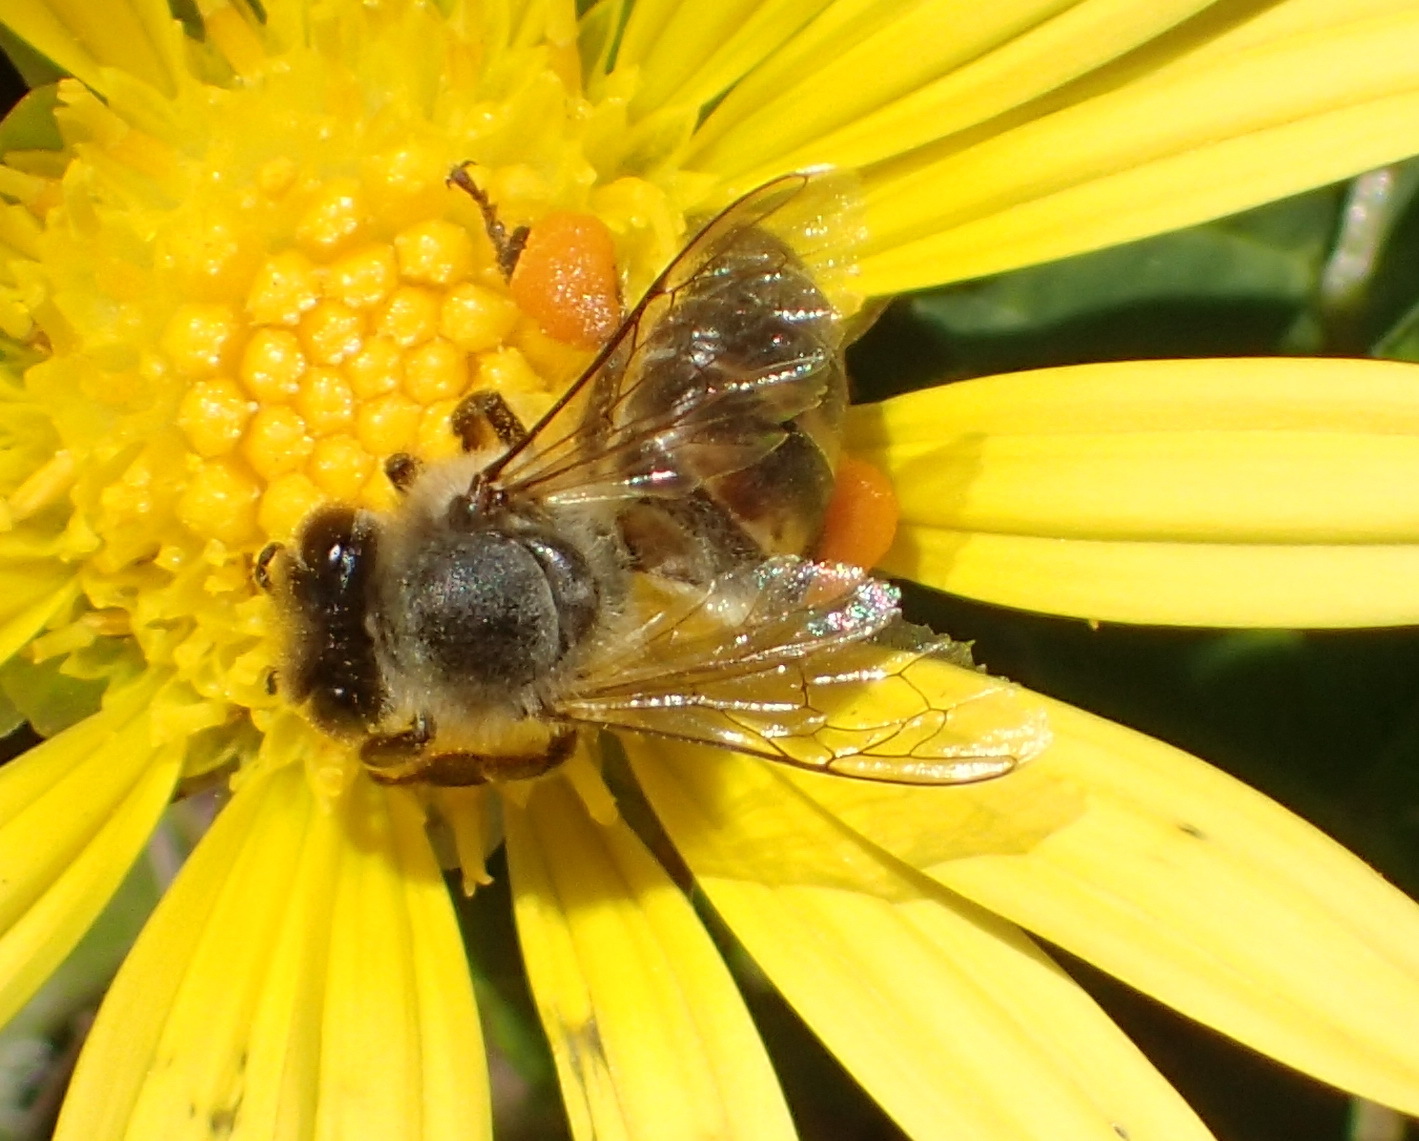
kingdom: Animalia
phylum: Arthropoda
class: Insecta
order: Hymenoptera
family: Apidae
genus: Apis
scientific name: Apis mellifera
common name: Honey bee
